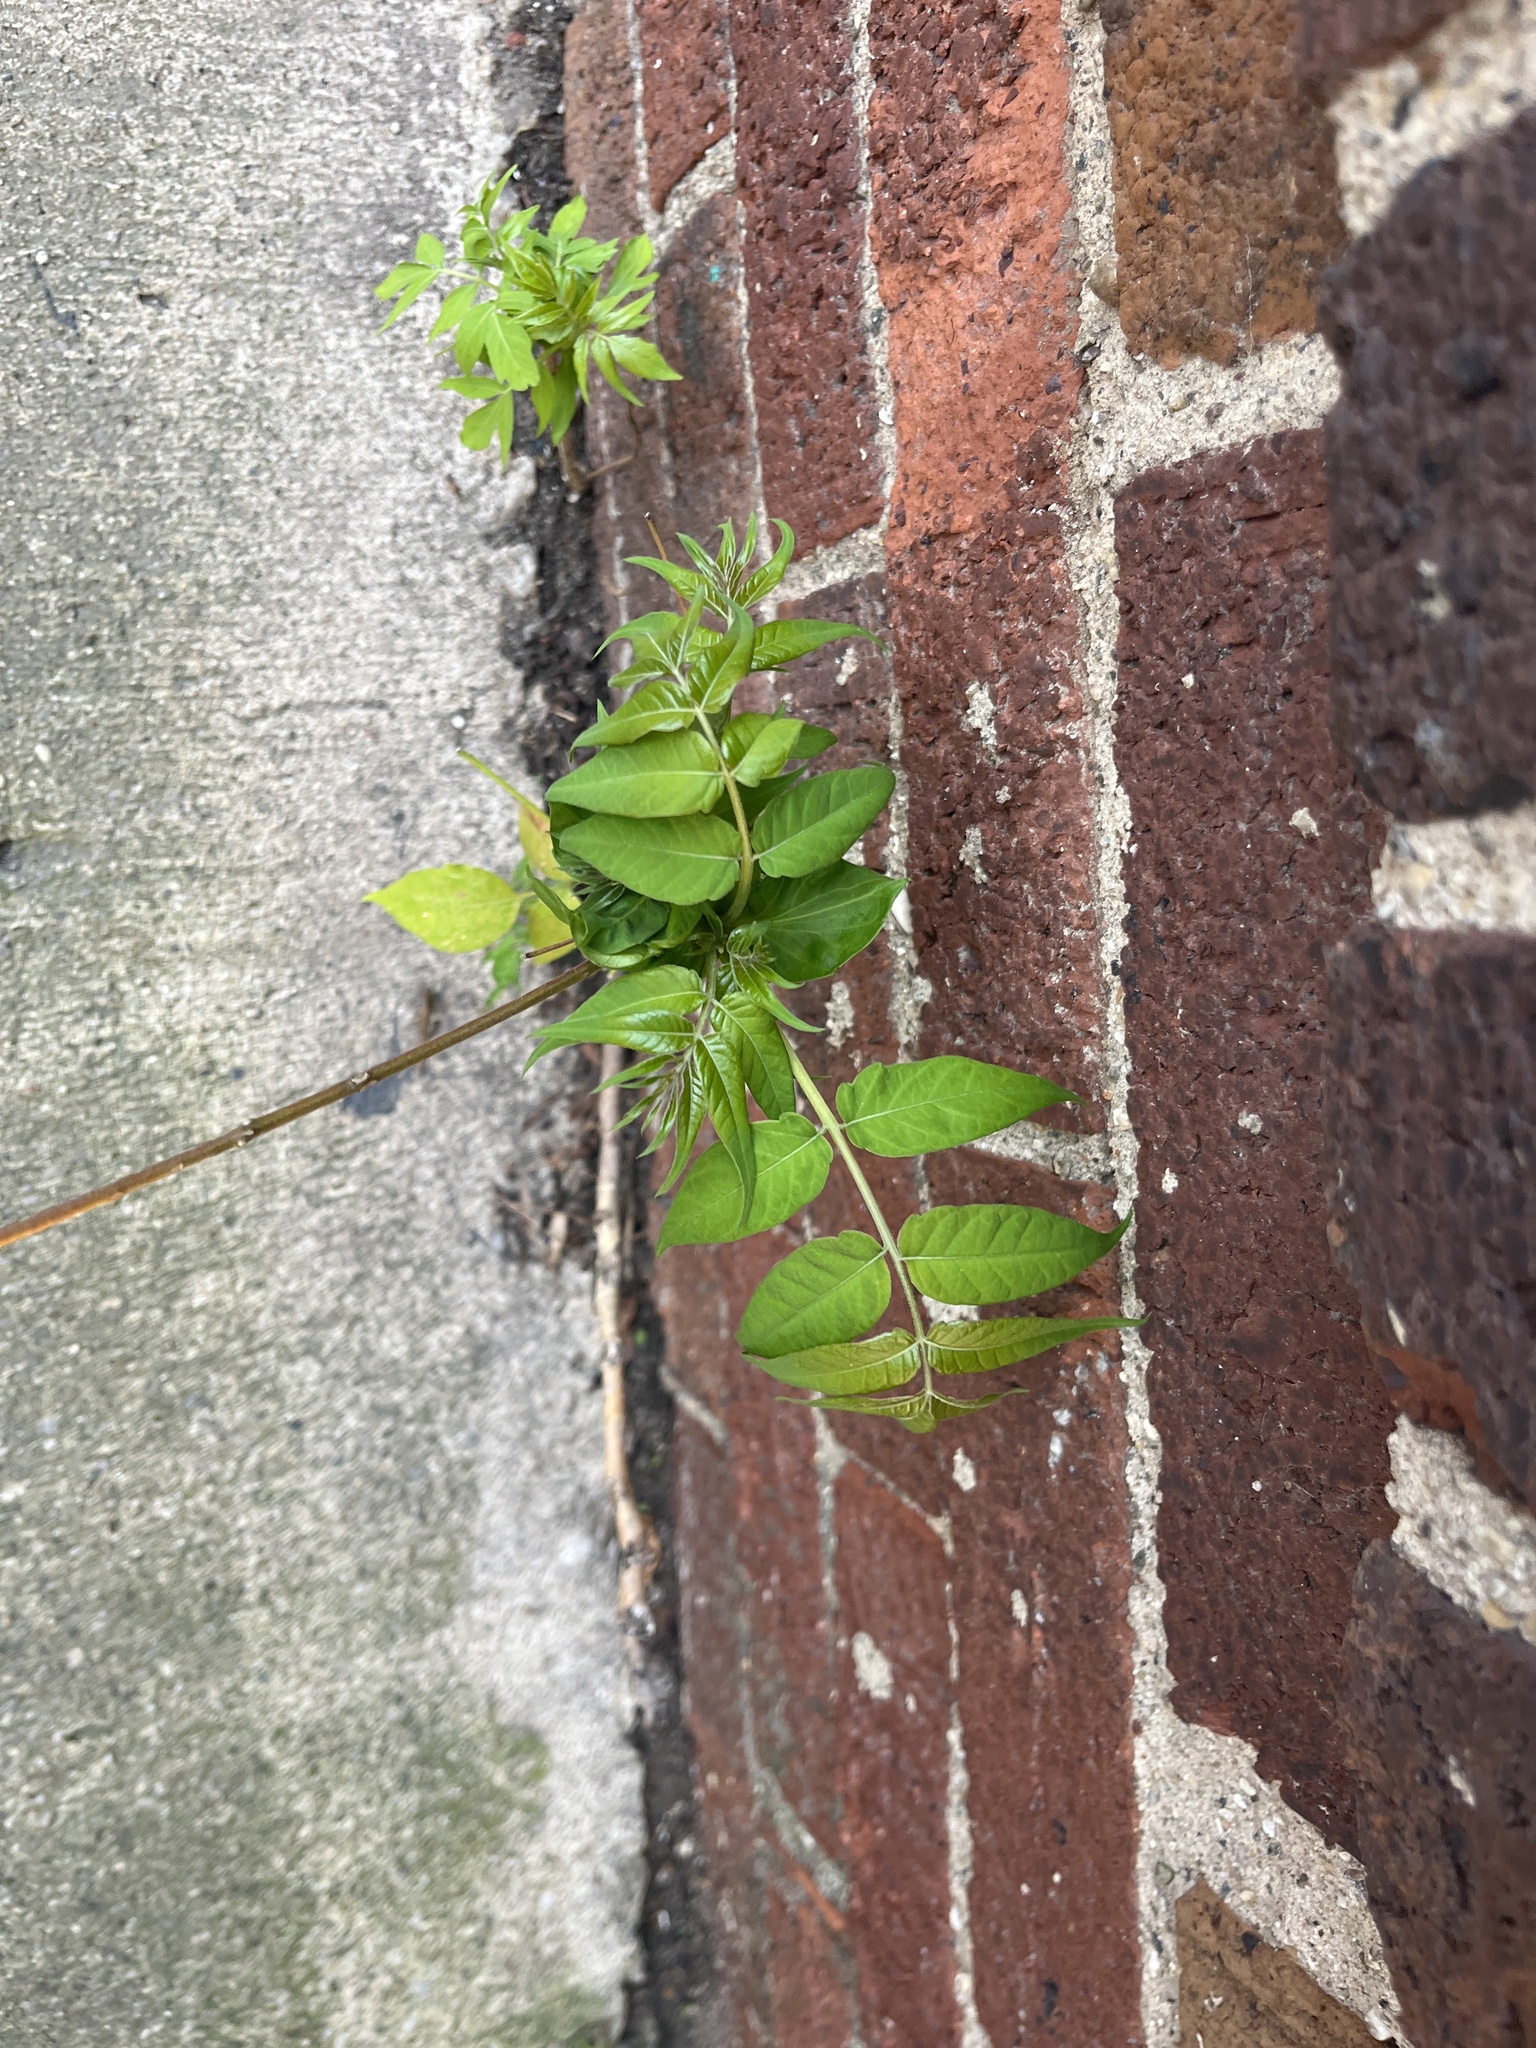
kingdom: Plantae
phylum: Tracheophyta
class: Magnoliopsida
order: Sapindales
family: Simaroubaceae
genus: Ailanthus
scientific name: Ailanthus altissima
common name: Tree-of-heaven
